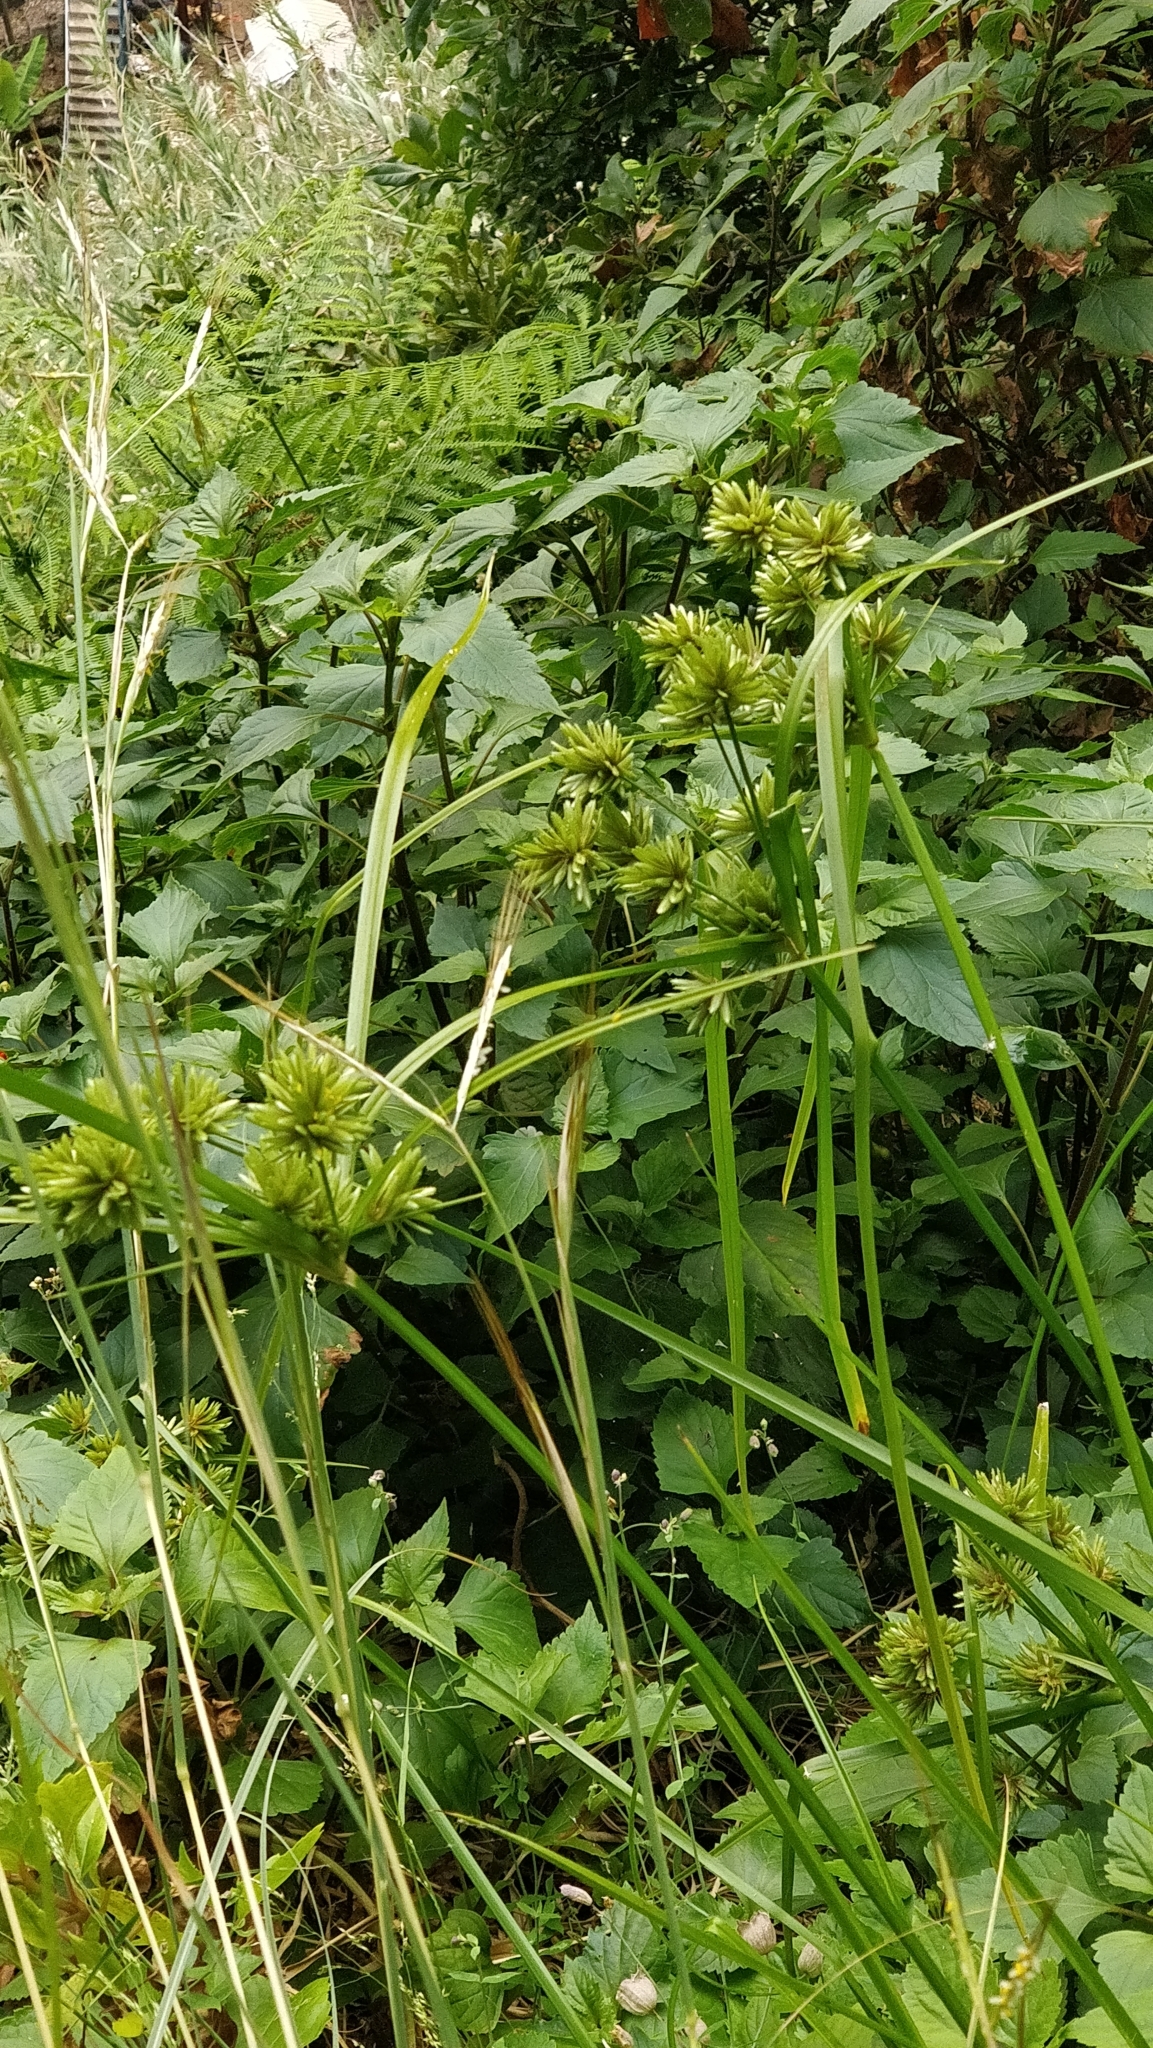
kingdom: Plantae
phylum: Tracheophyta
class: Liliopsida
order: Poales
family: Cyperaceae
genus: Cyperus
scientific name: Cyperus eragrostis
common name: Tall flatsedge
